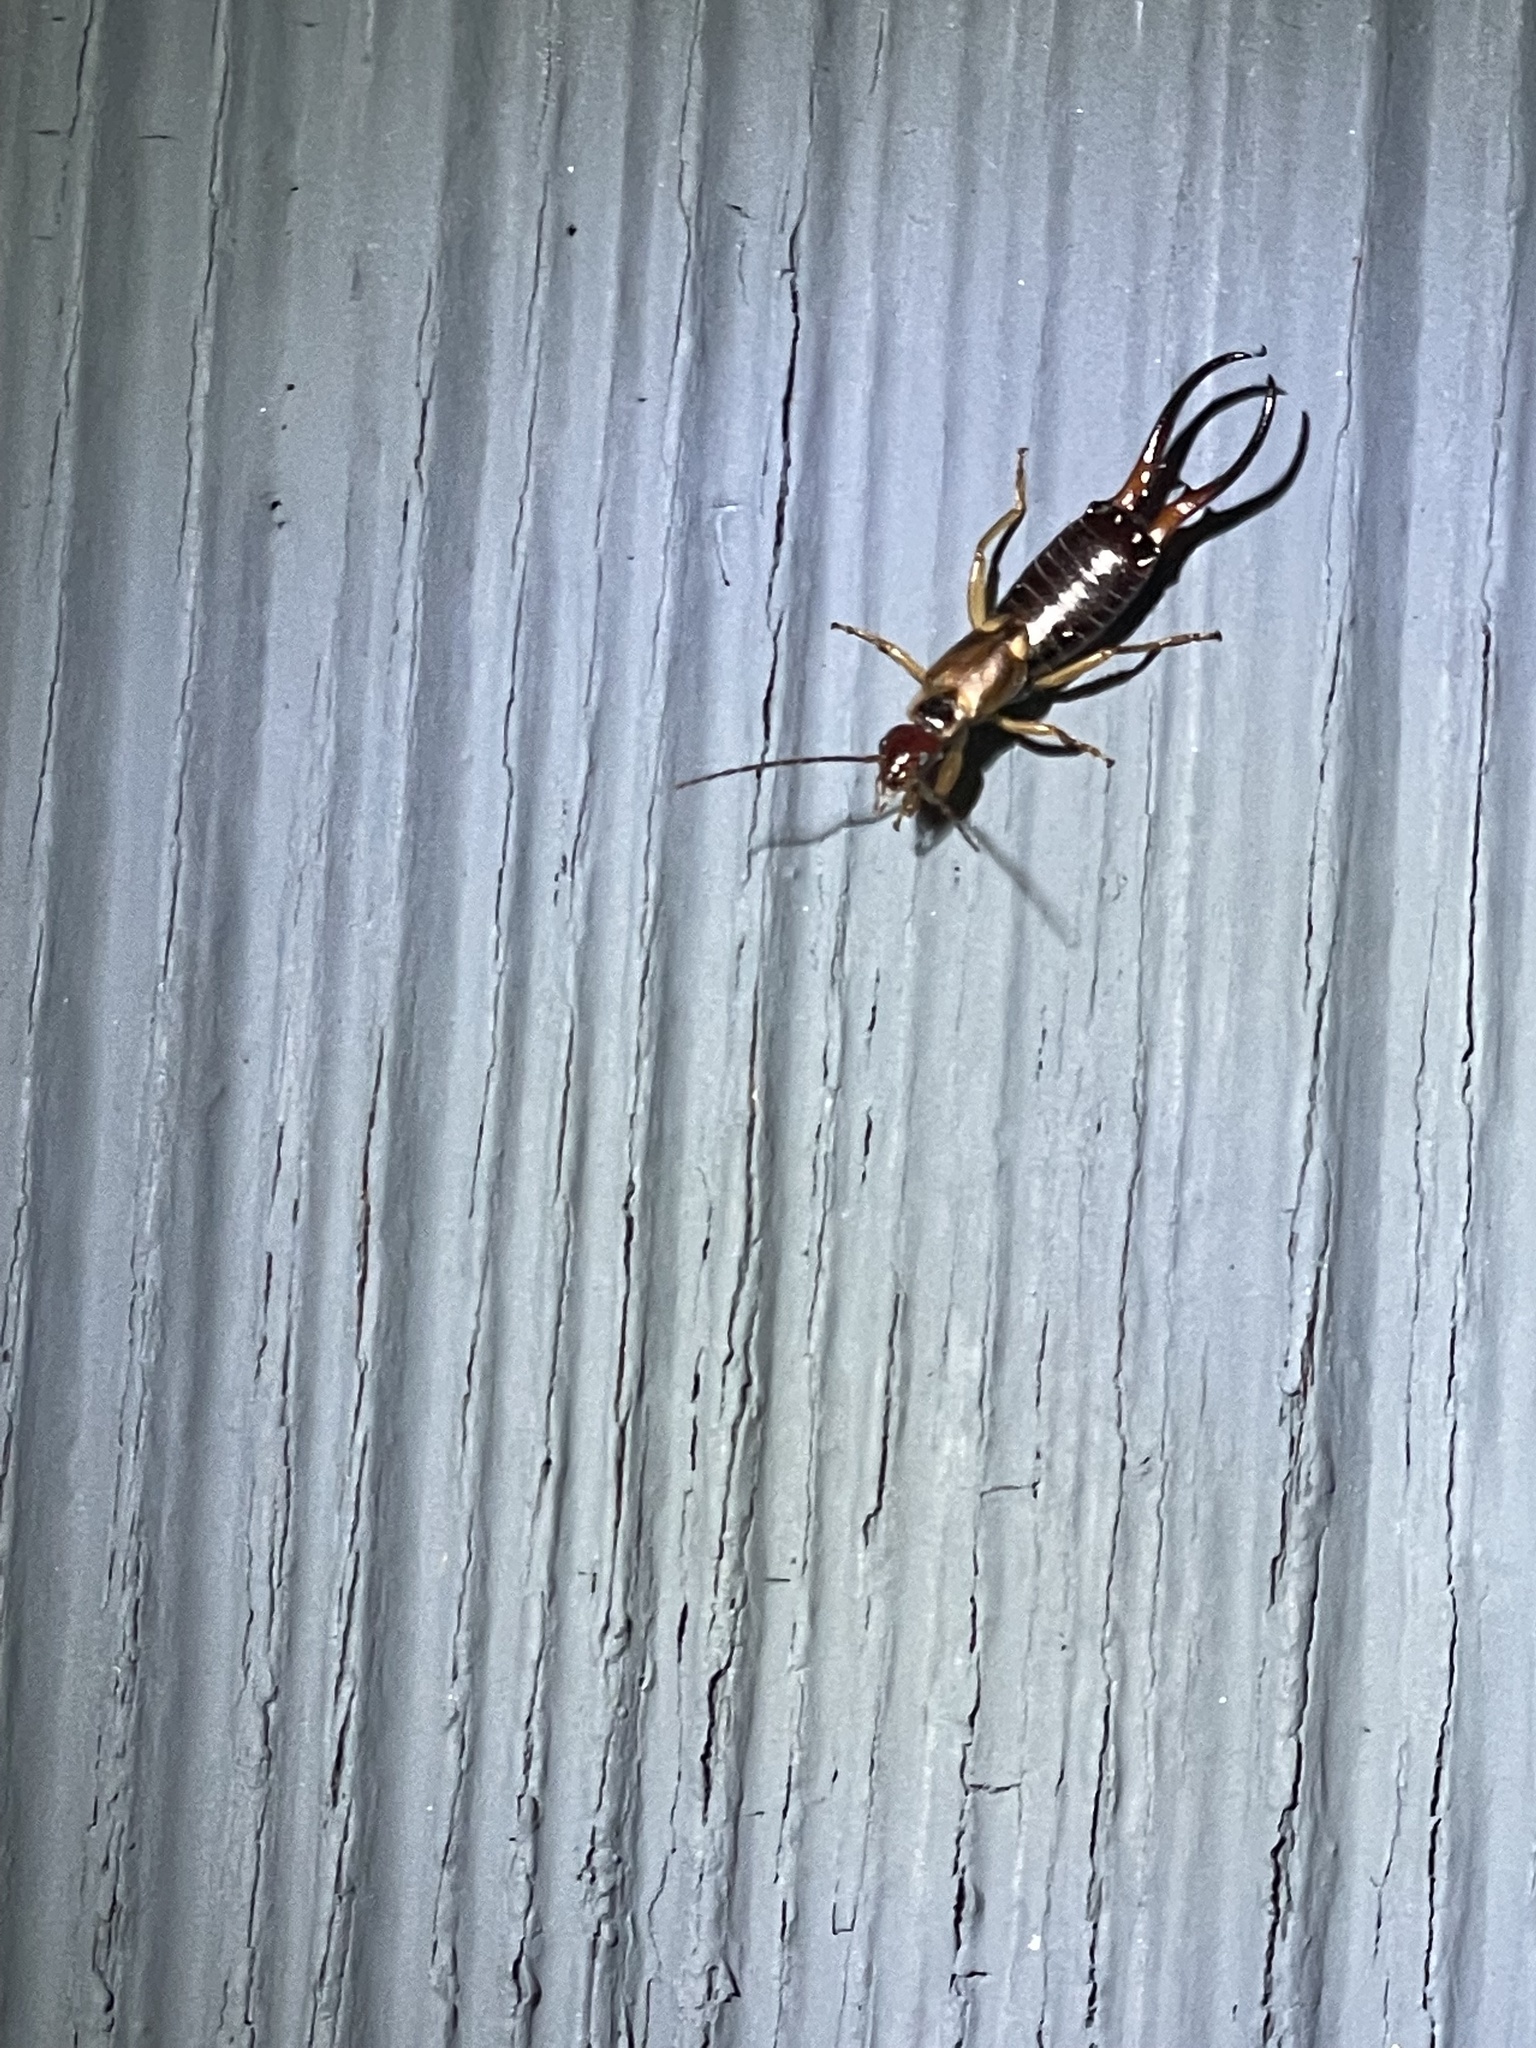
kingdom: Animalia
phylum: Arthropoda
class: Insecta
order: Dermaptera
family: Forficulidae
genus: Forficula
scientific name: Forficula
